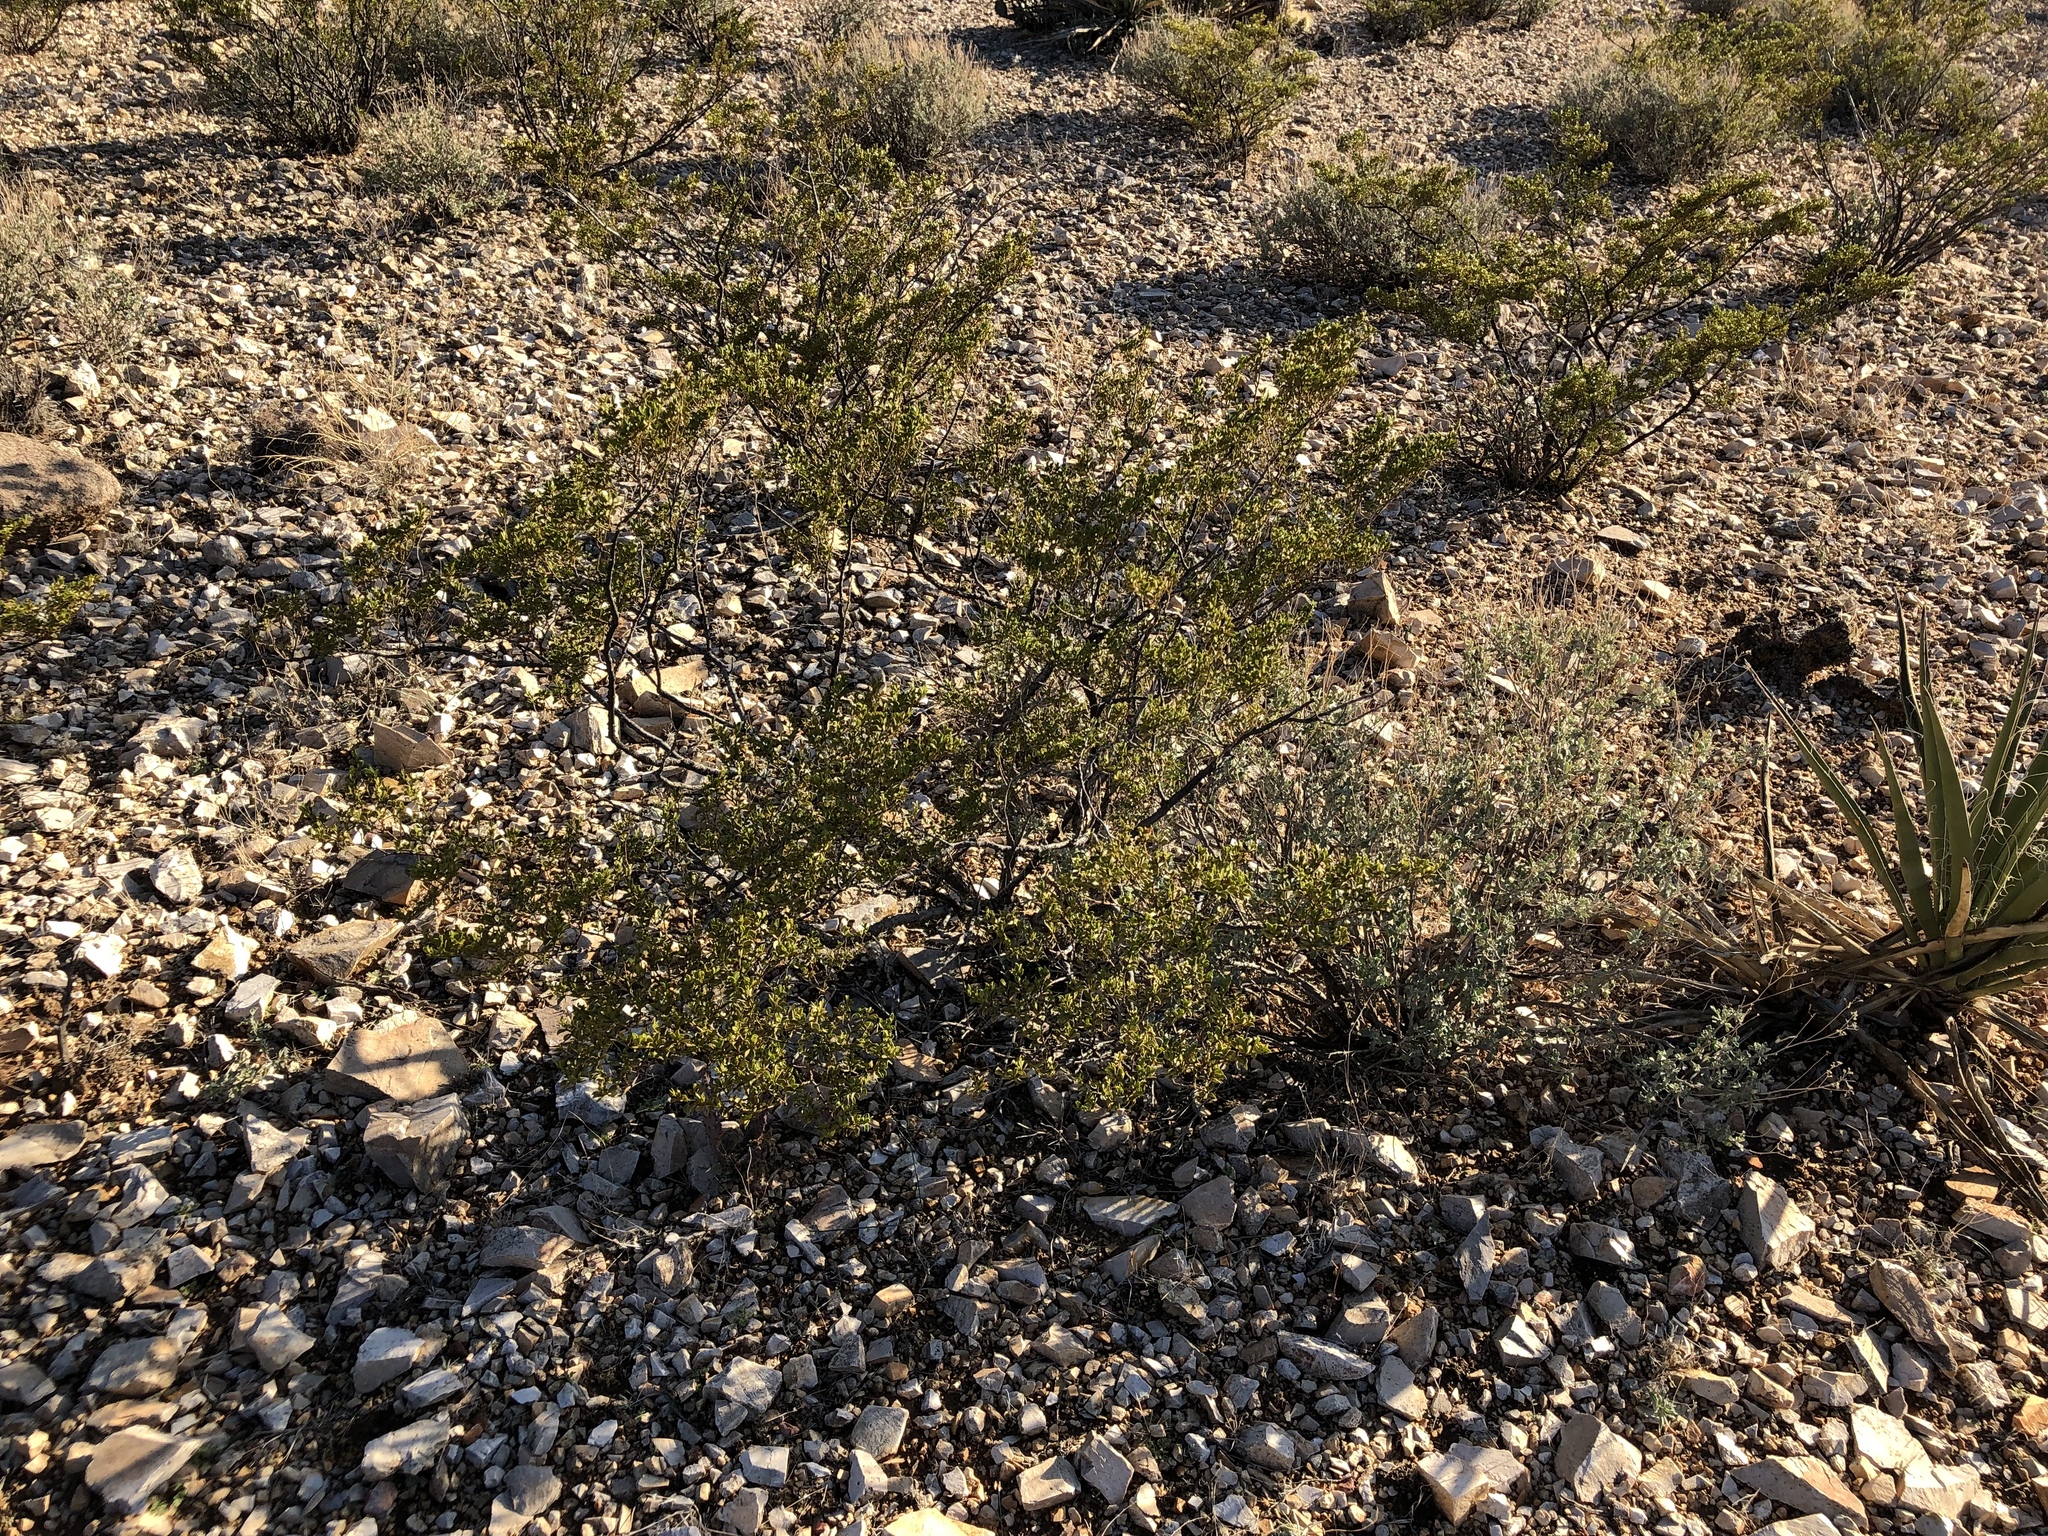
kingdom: Plantae
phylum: Tracheophyta
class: Magnoliopsida
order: Zygophyllales
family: Zygophyllaceae
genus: Larrea
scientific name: Larrea tridentata
